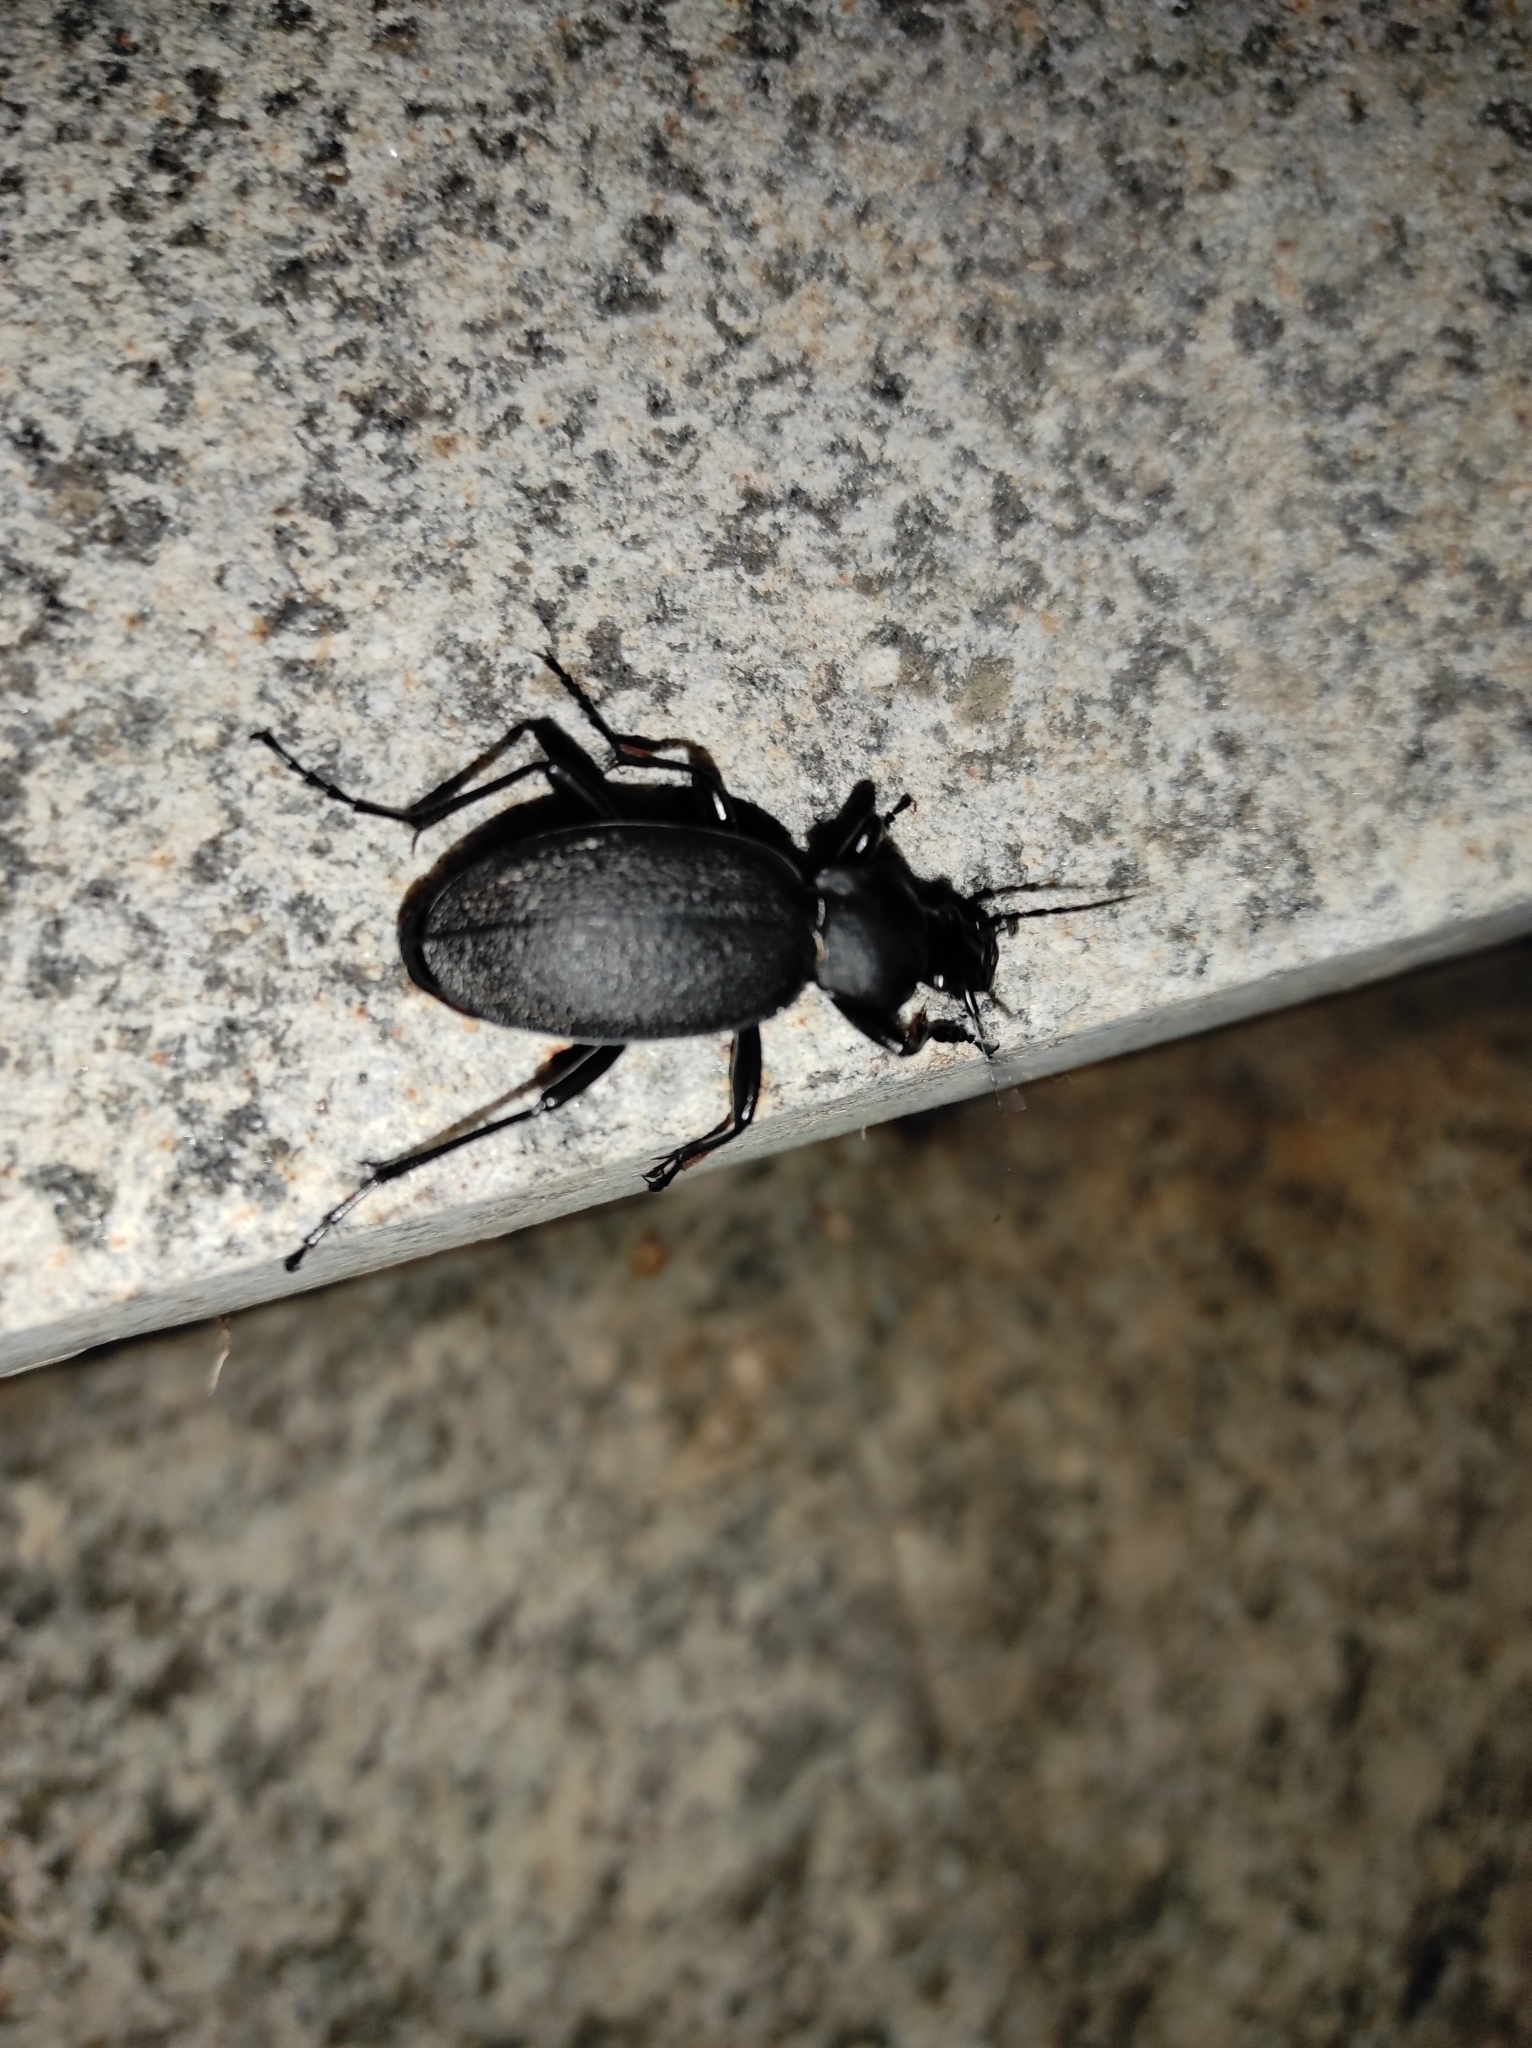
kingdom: Animalia
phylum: Arthropoda
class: Insecta
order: Coleoptera
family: Carabidae
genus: Carabus
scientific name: Carabus coriaceus
